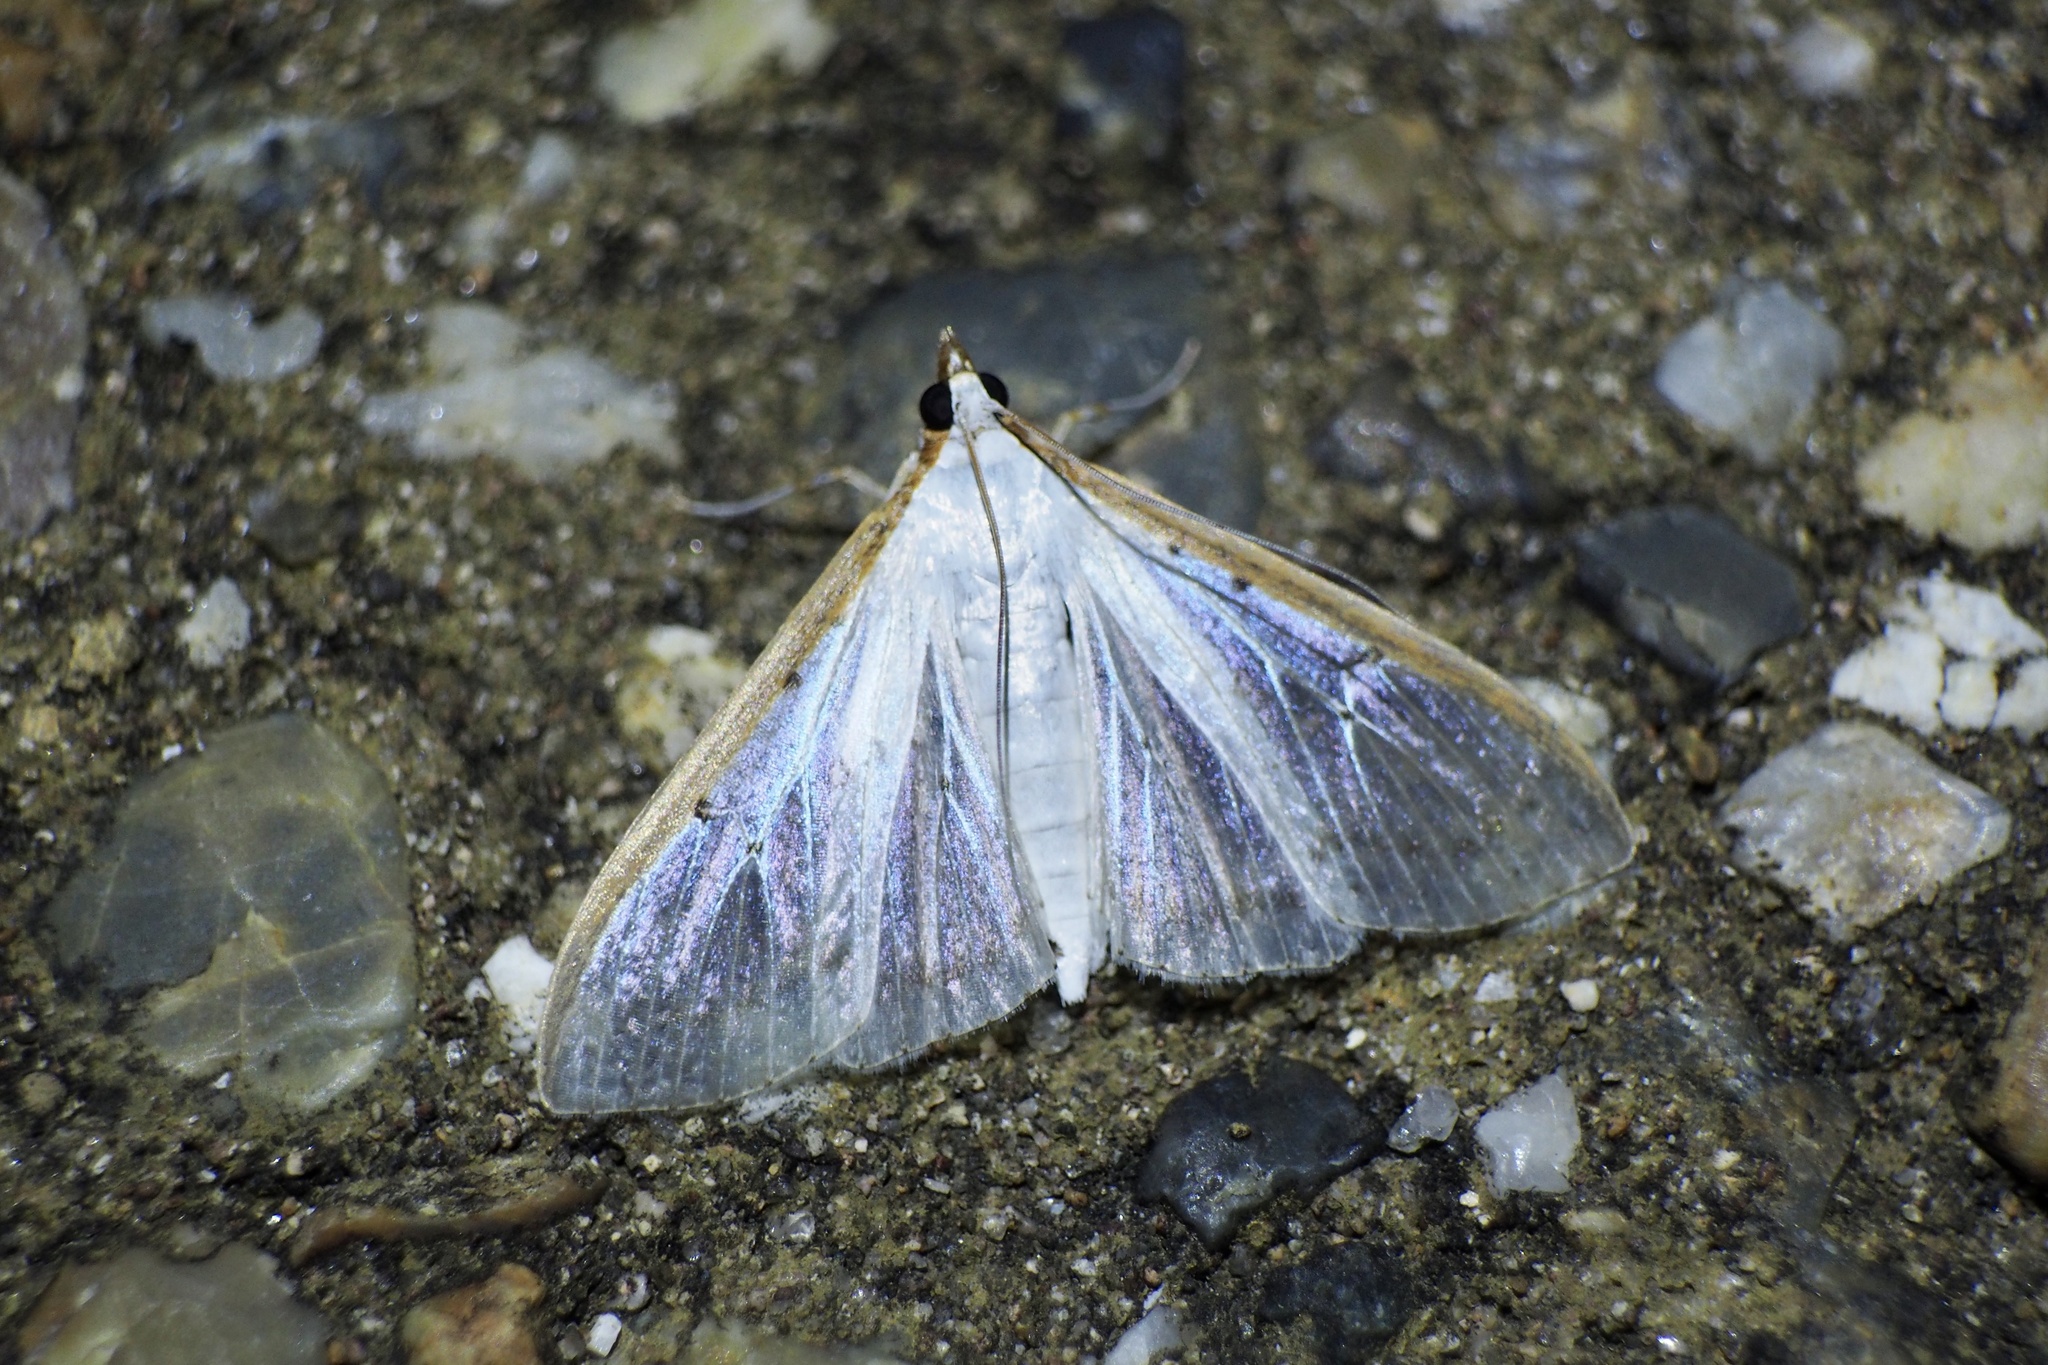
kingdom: Animalia
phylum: Arthropoda
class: Insecta
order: Lepidoptera
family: Crambidae
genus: Palpita
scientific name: Palpita nigropunctalis
